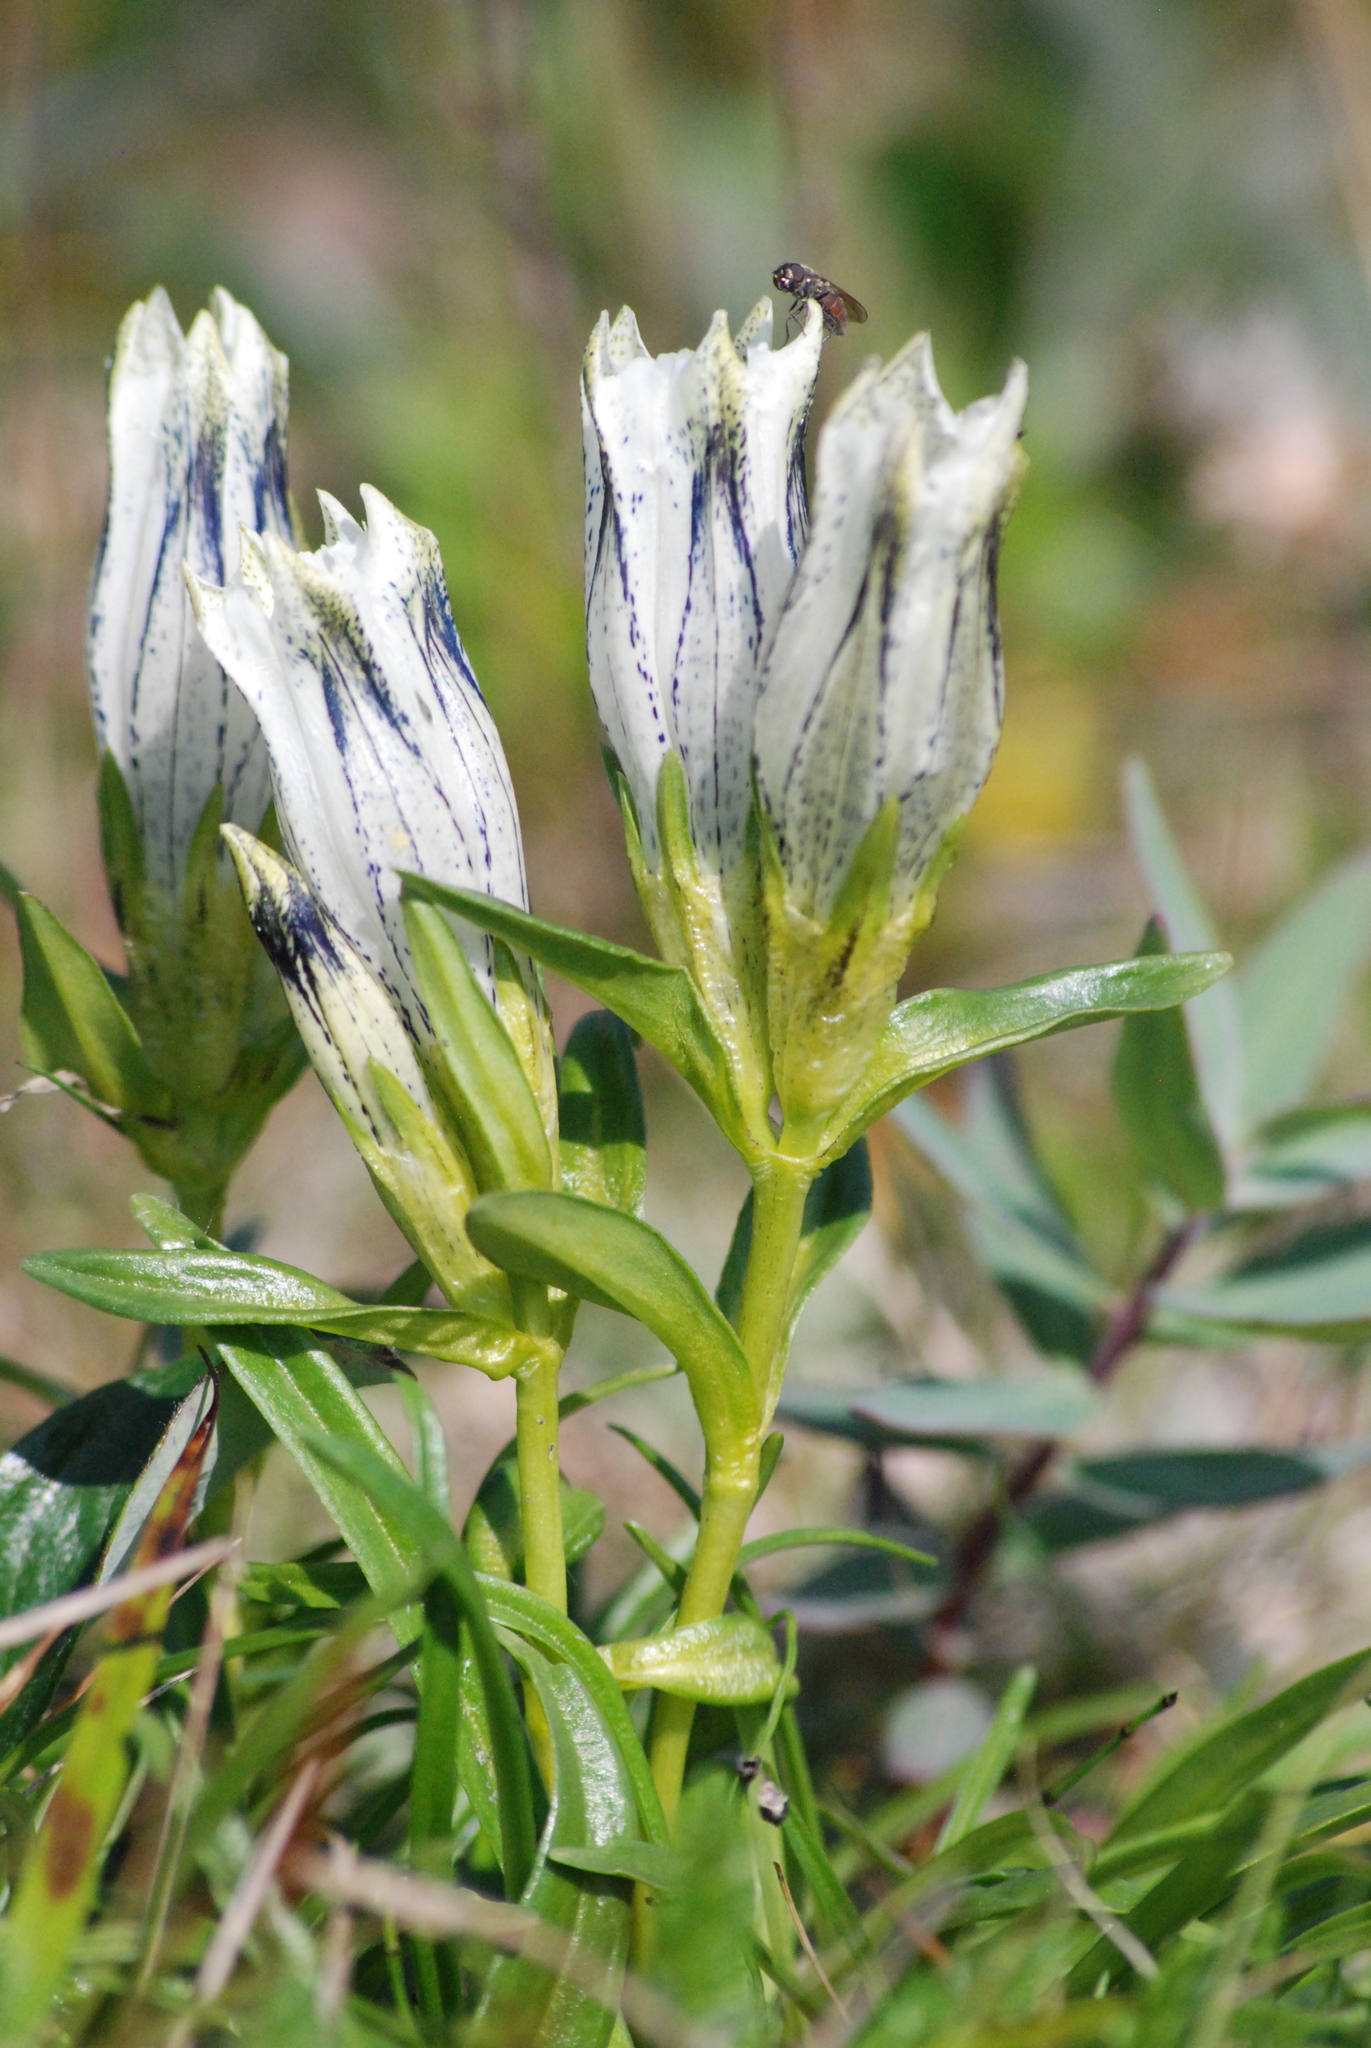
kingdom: Plantae
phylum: Tracheophyta
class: Magnoliopsida
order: Gentianales
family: Gentianaceae
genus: Gentiana
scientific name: Gentiana algida
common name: Arctic gentian
